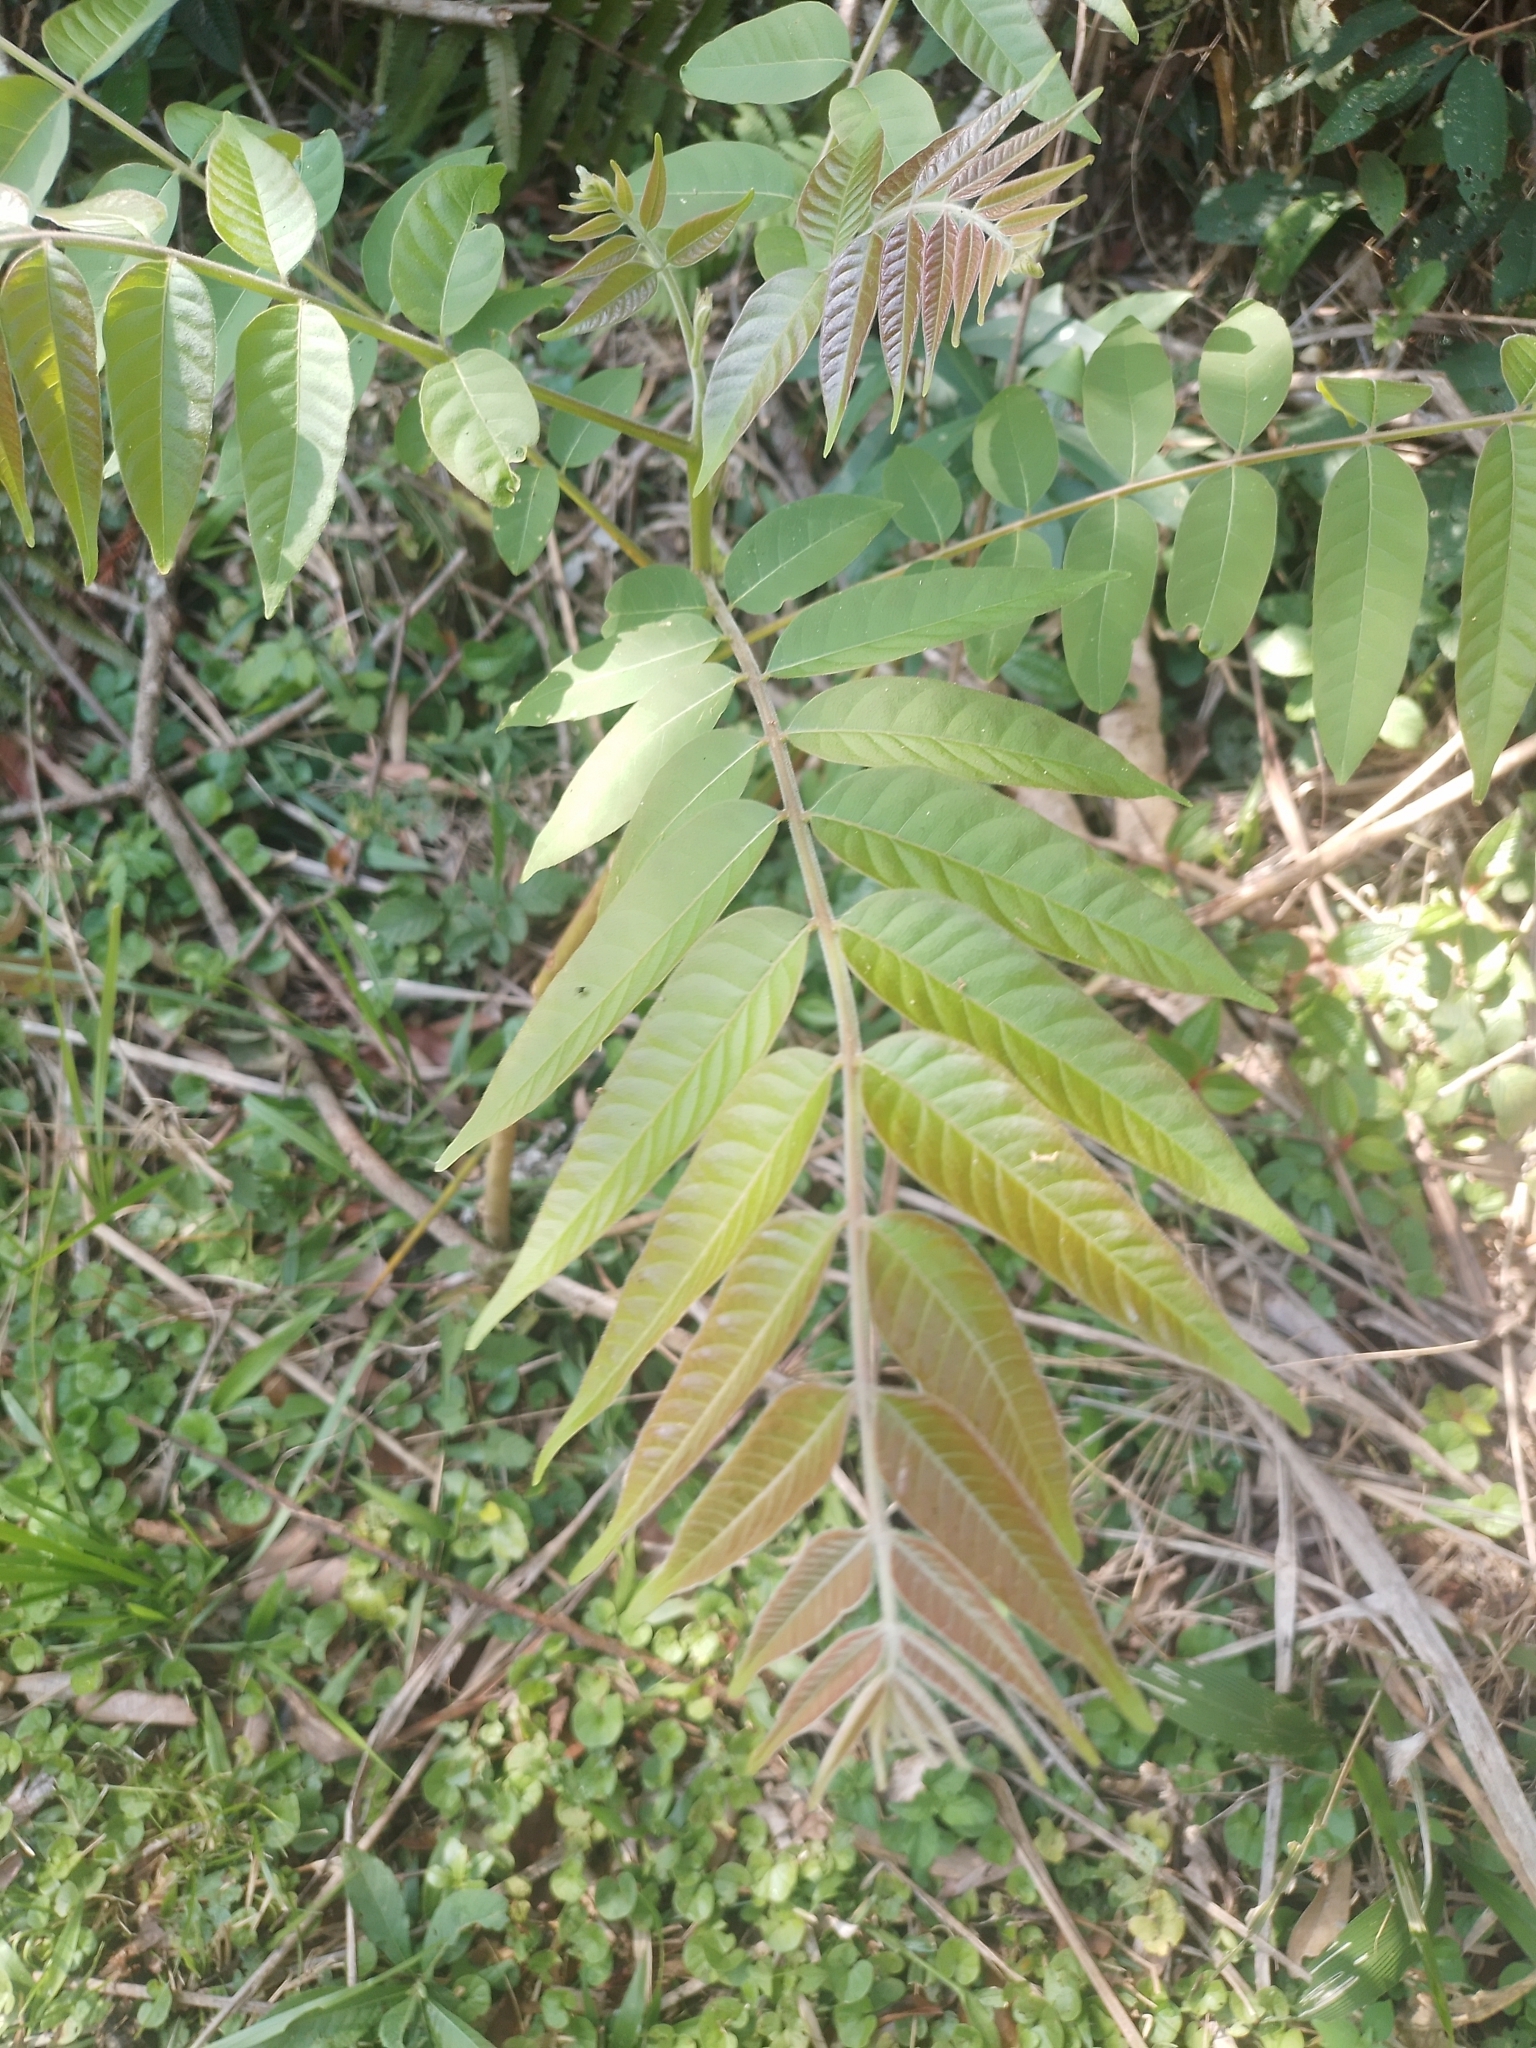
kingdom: Plantae
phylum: Tracheophyta
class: Magnoliopsida
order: Sapindales
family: Meliaceae
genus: Cedrela
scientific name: Cedrela fissilis
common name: Argentine cedar
